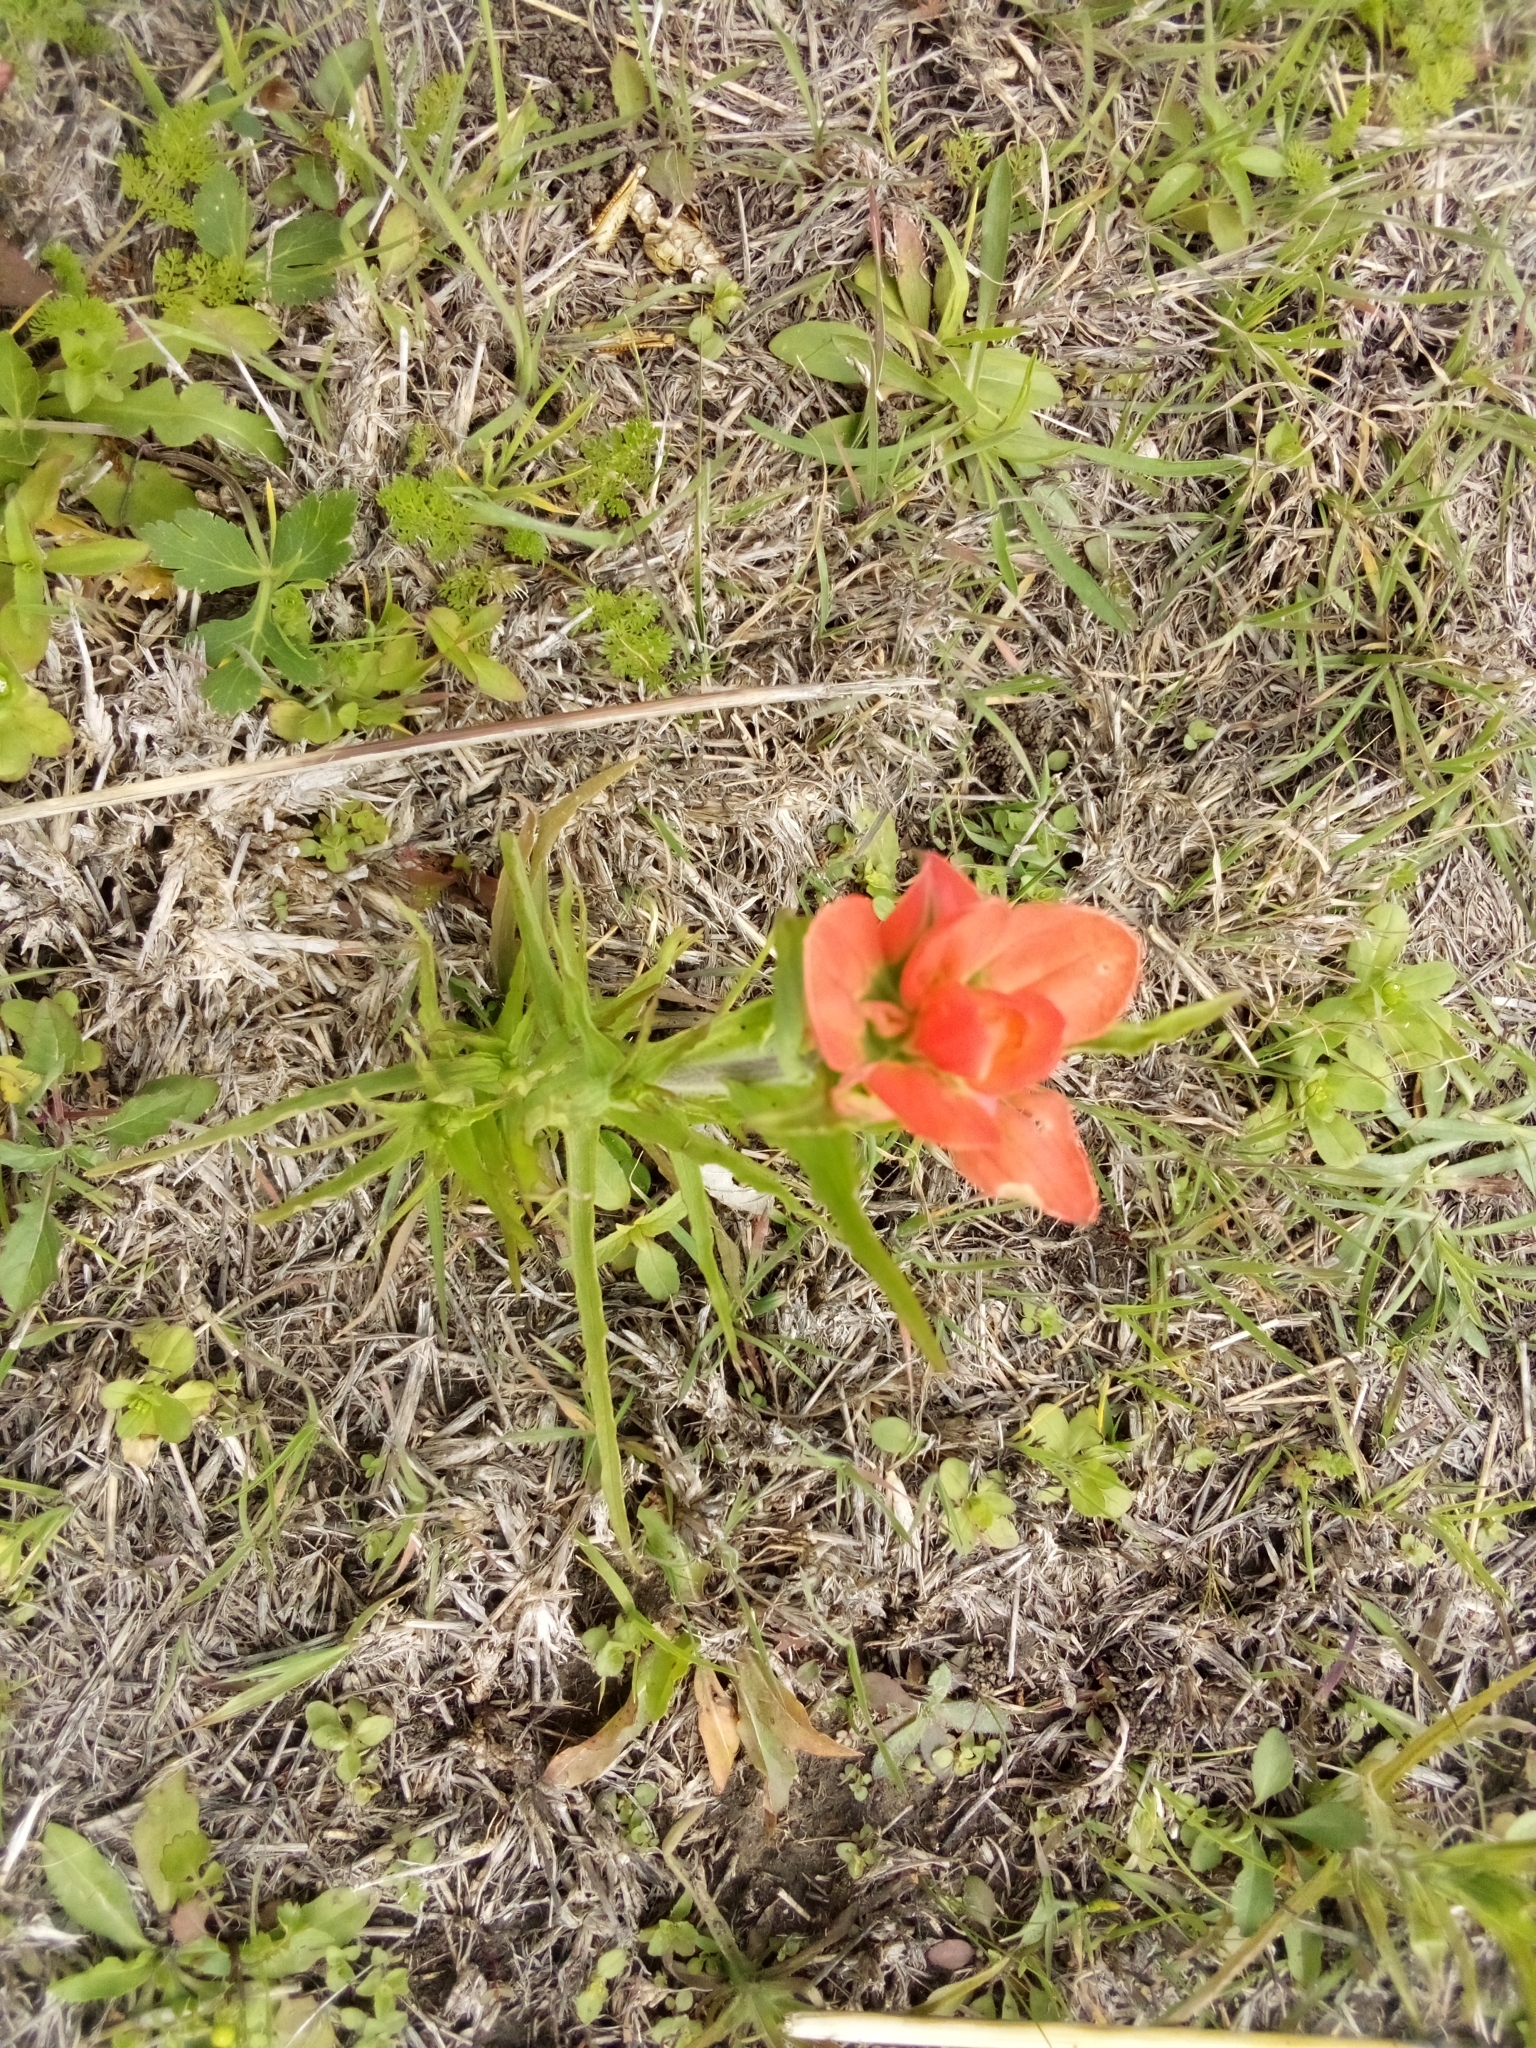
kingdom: Plantae
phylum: Tracheophyta
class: Magnoliopsida
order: Lamiales
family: Orobanchaceae
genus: Castilleja
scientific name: Castilleja indivisa
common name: Texas paintbrush
